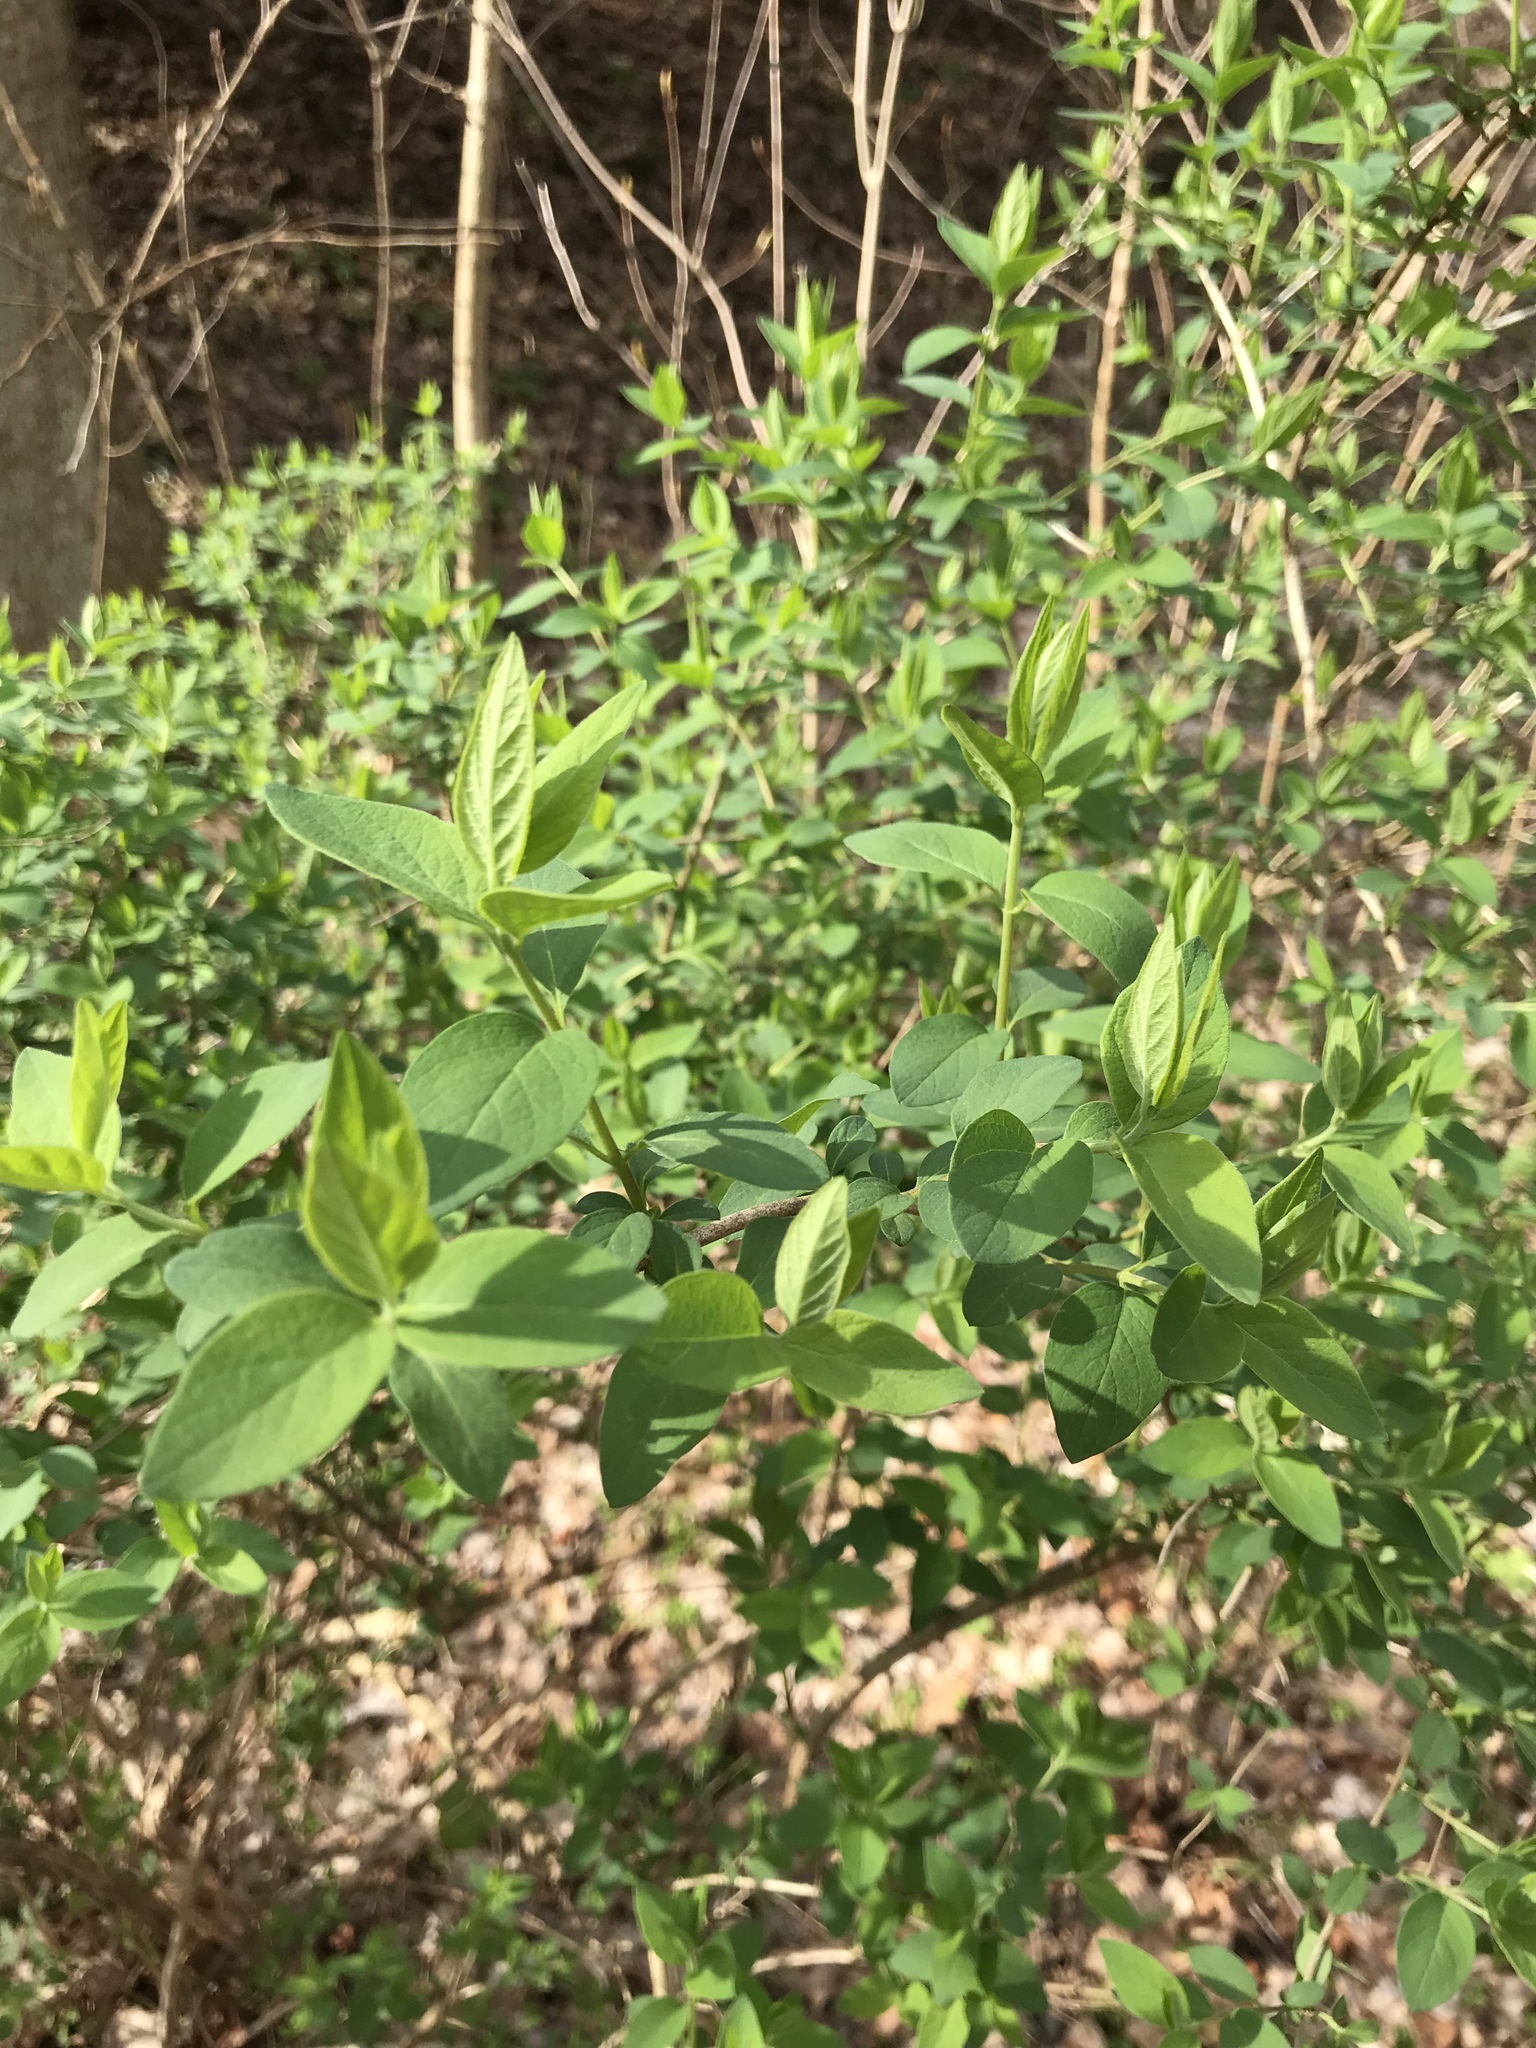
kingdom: Plantae
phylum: Tracheophyta
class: Magnoliopsida
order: Dipsacales
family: Caprifoliaceae
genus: Lonicera
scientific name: Lonicera morrowii
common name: Morrow's honeysuckle
